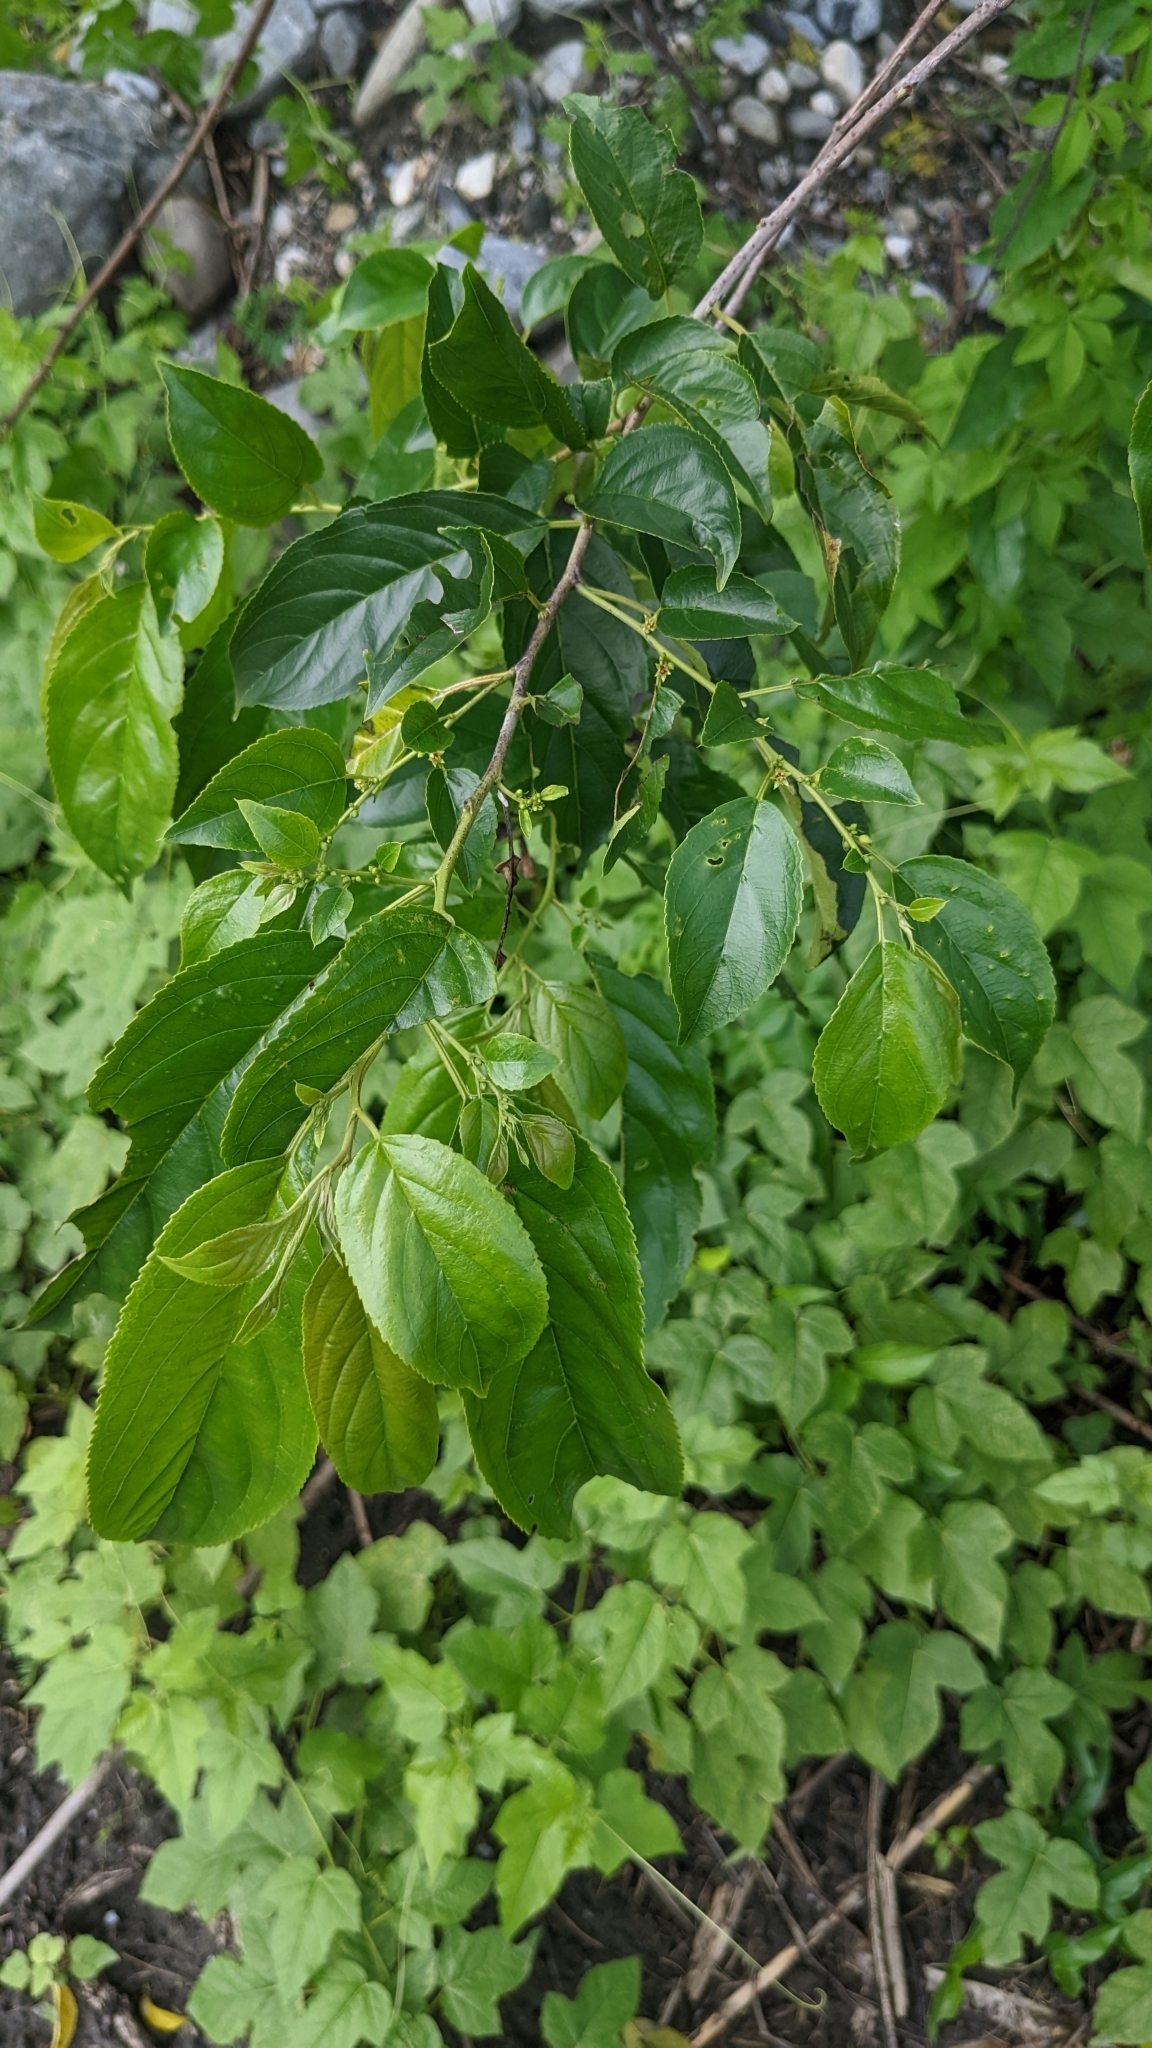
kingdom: Plantae
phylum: Tracheophyta
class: Magnoliopsida
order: Rosales
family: Rhamnaceae
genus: Rhamnus
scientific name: Rhamnus formosana
